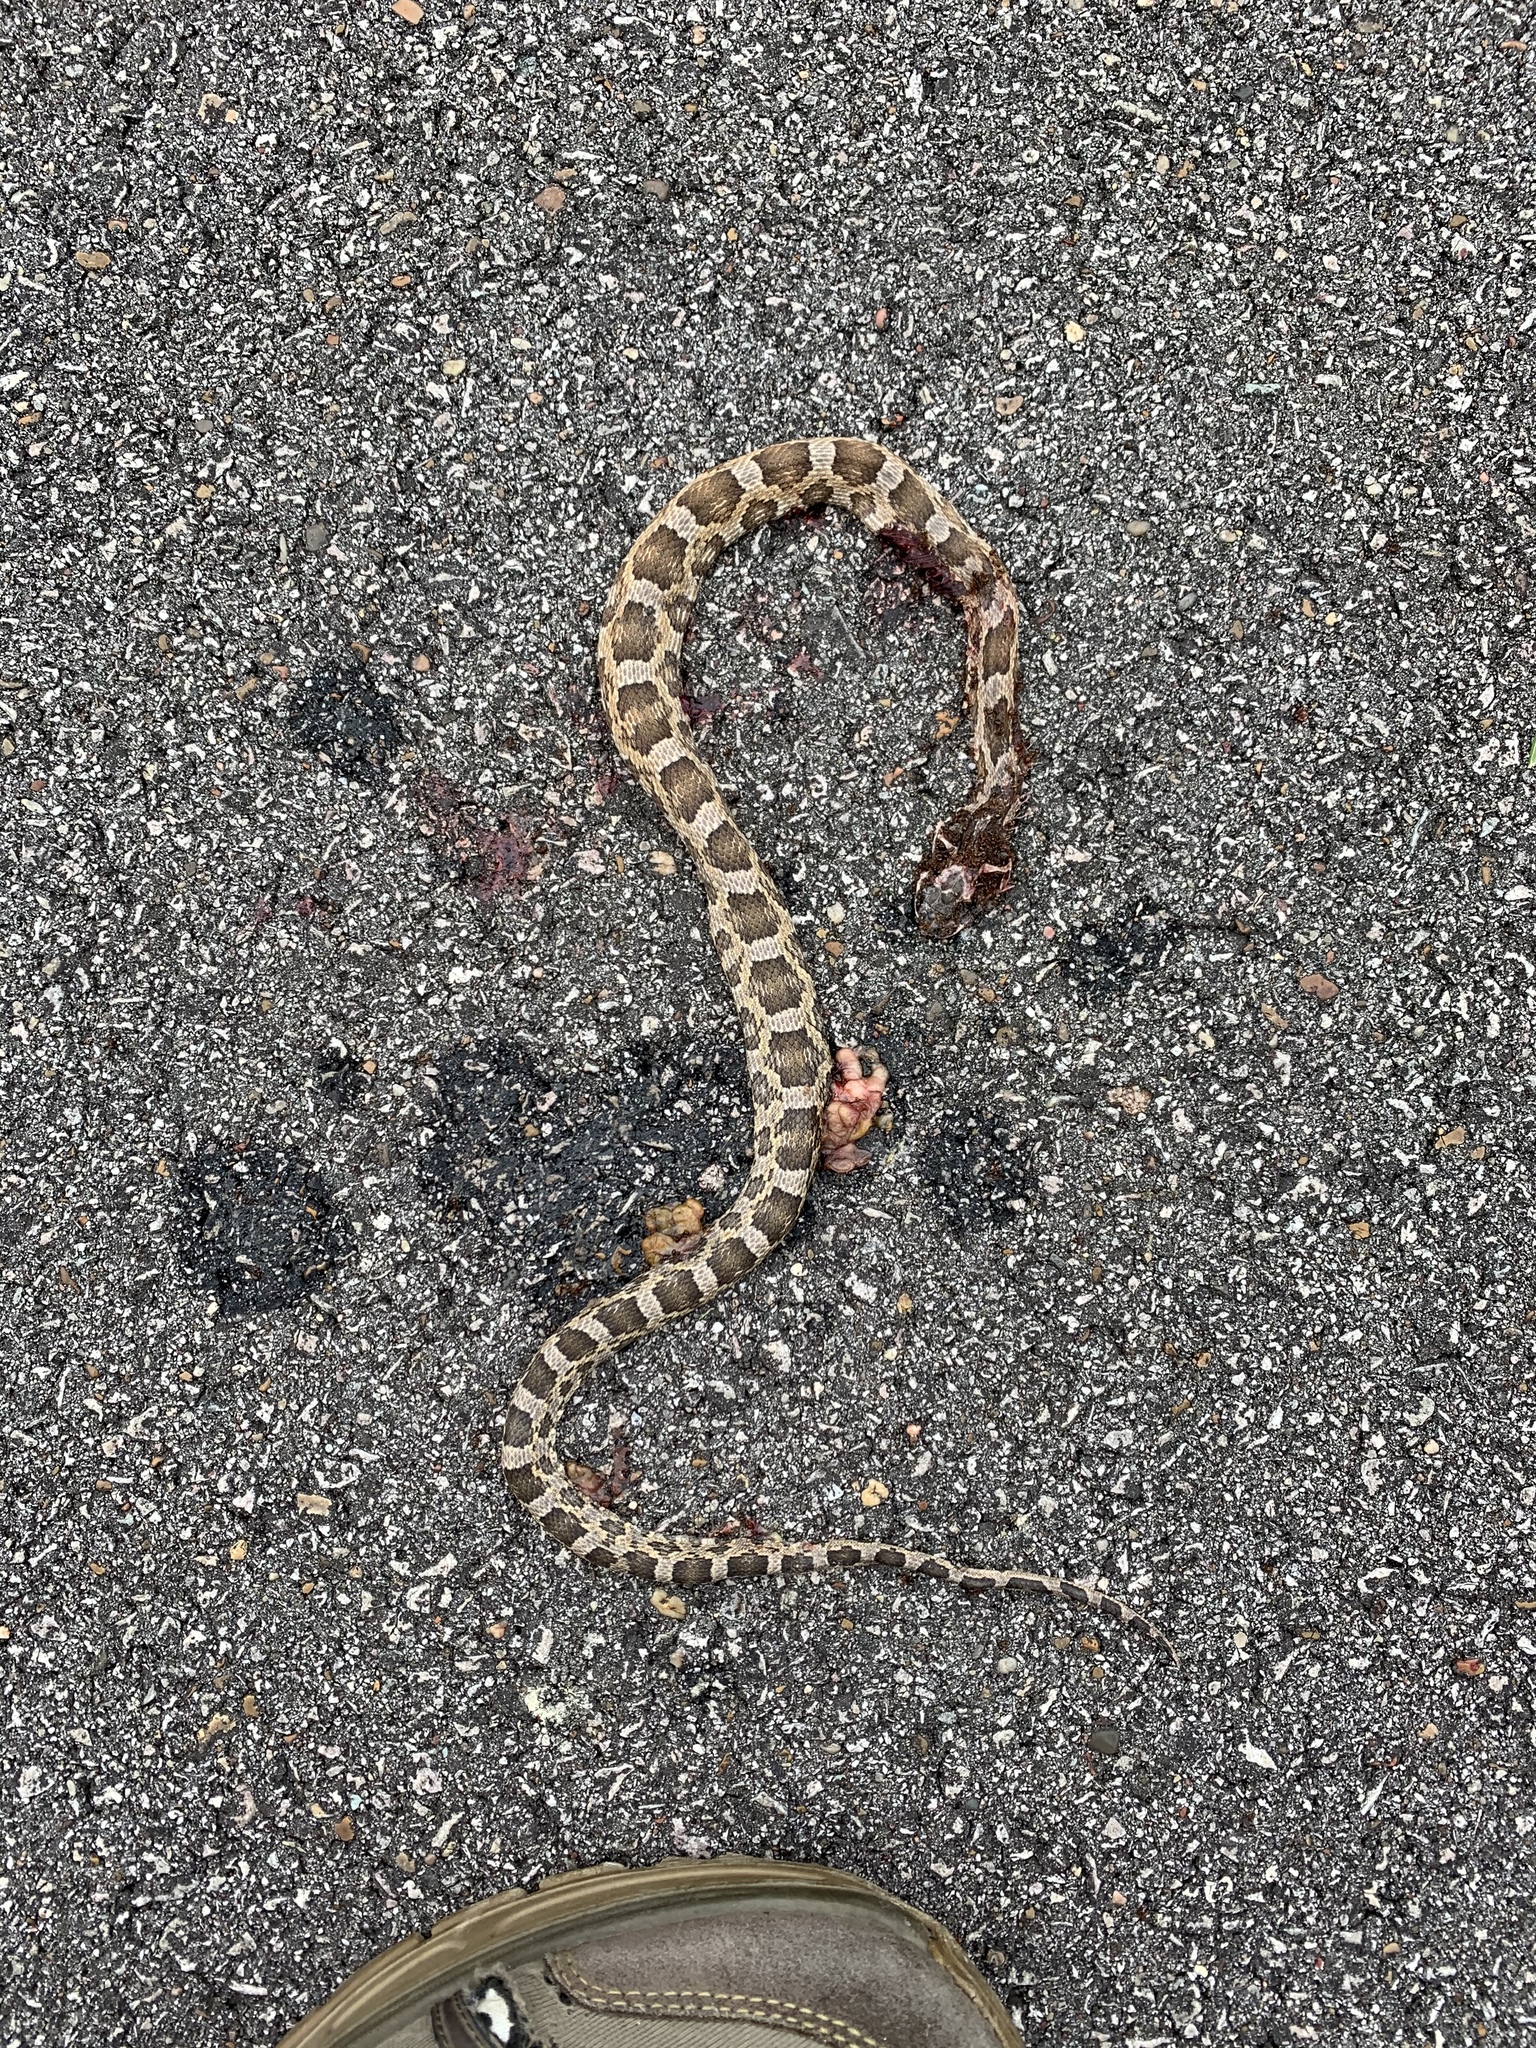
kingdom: Animalia
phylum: Chordata
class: Squamata
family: Colubridae
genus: Pantherophis
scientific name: Pantherophis obsoletus
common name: Black rat snake
